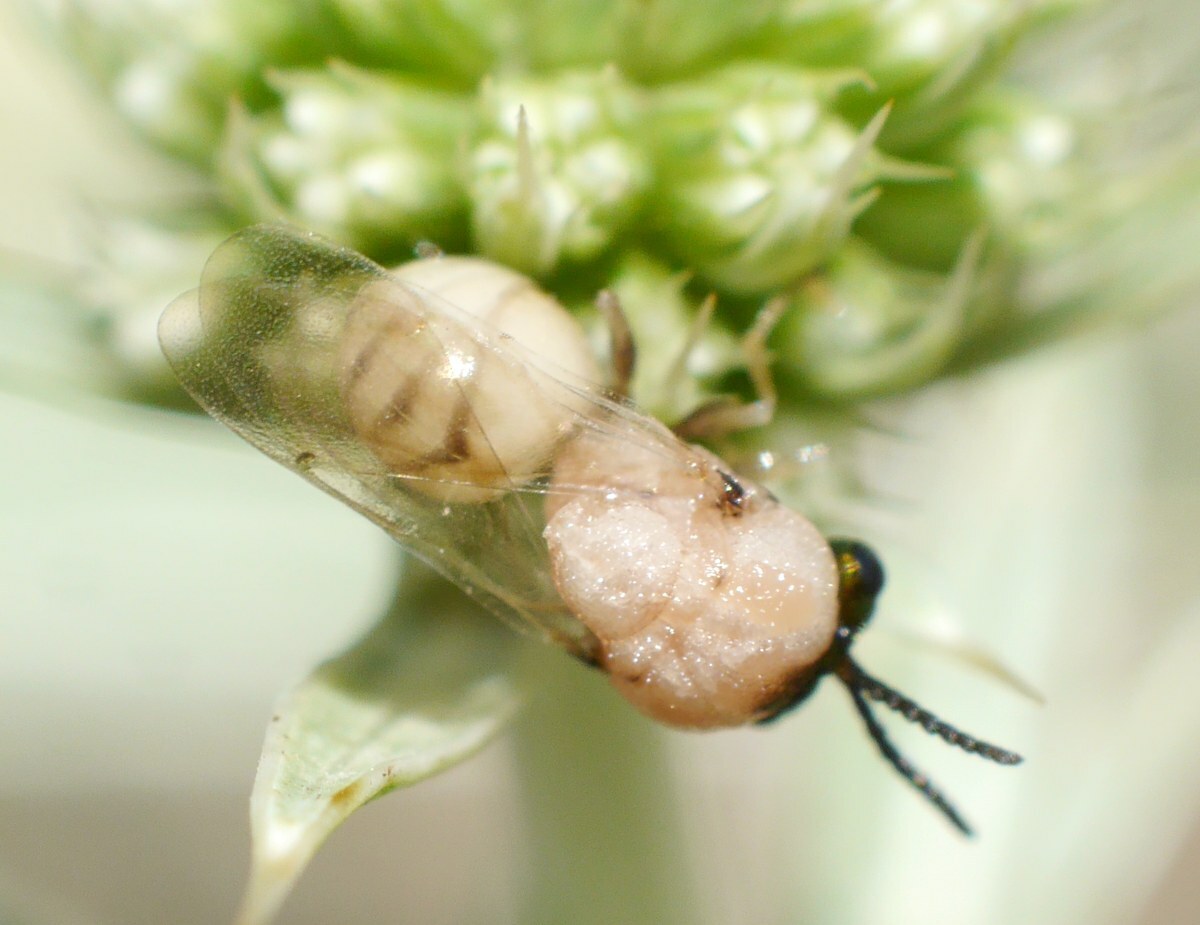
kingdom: Animalia
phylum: Arthropoda
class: Insecta
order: Hymenoptera
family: Eucharitidae
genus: Eucharis
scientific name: Eucharis shestakovi
